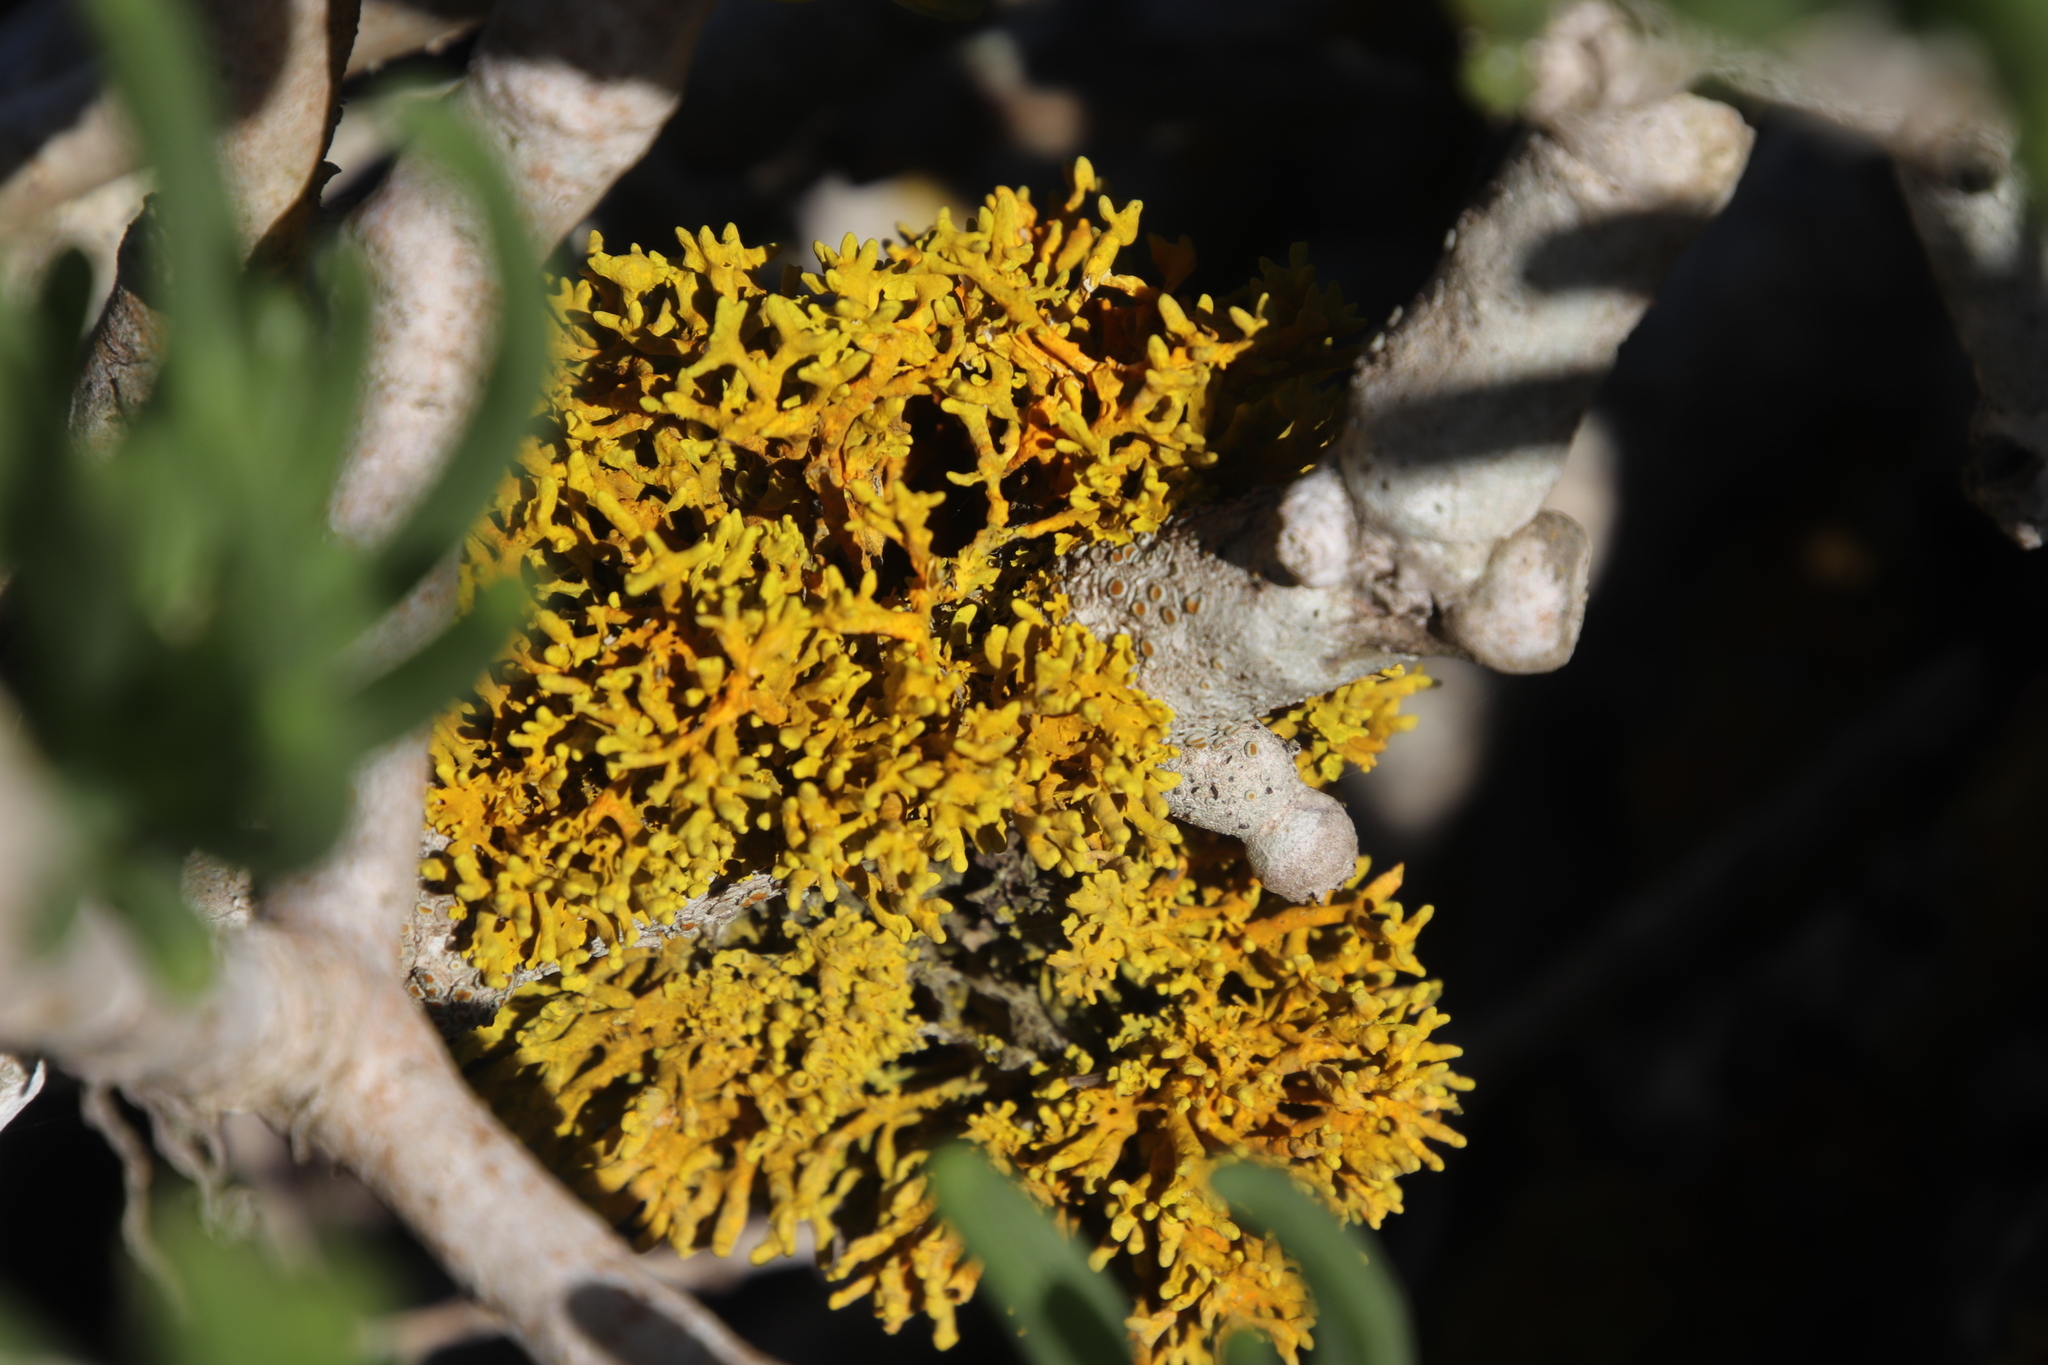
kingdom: Fungi
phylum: Ascomycota
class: Lecanoromycetes
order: Teloschistales
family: Teloschistaceae
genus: Dufourea
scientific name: Dufourea inflata
